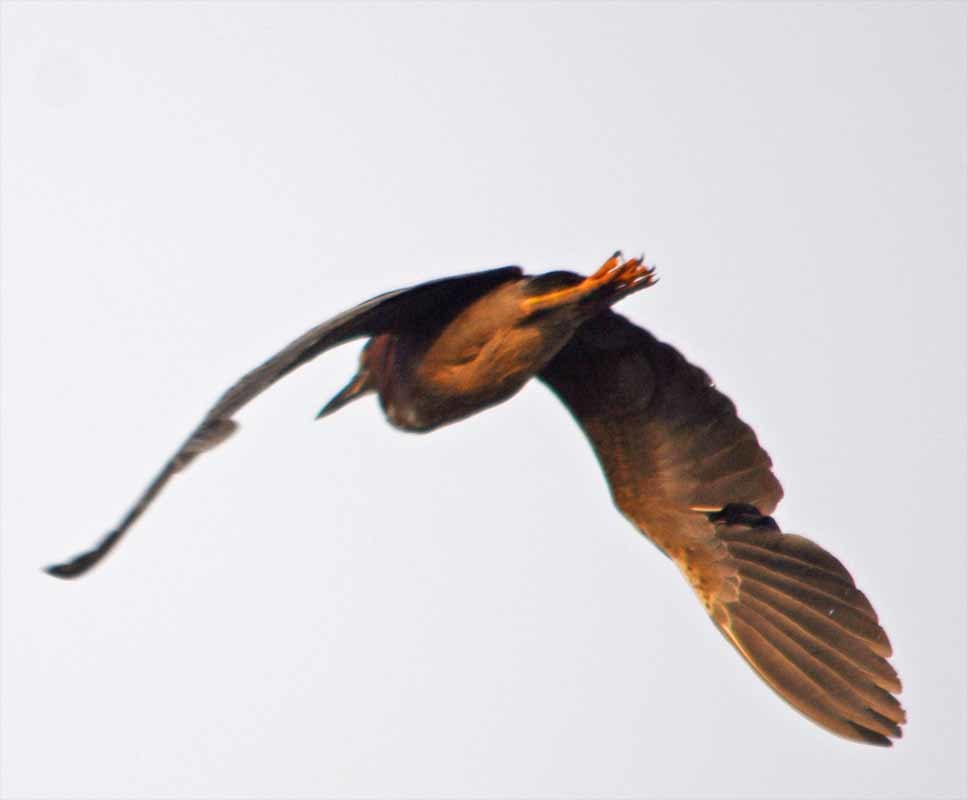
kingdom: Animalia
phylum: Chordata
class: Aves
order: Pelecaniformes
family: Ardeidae
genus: Butorides
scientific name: Butorides virescens
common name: Green heron
